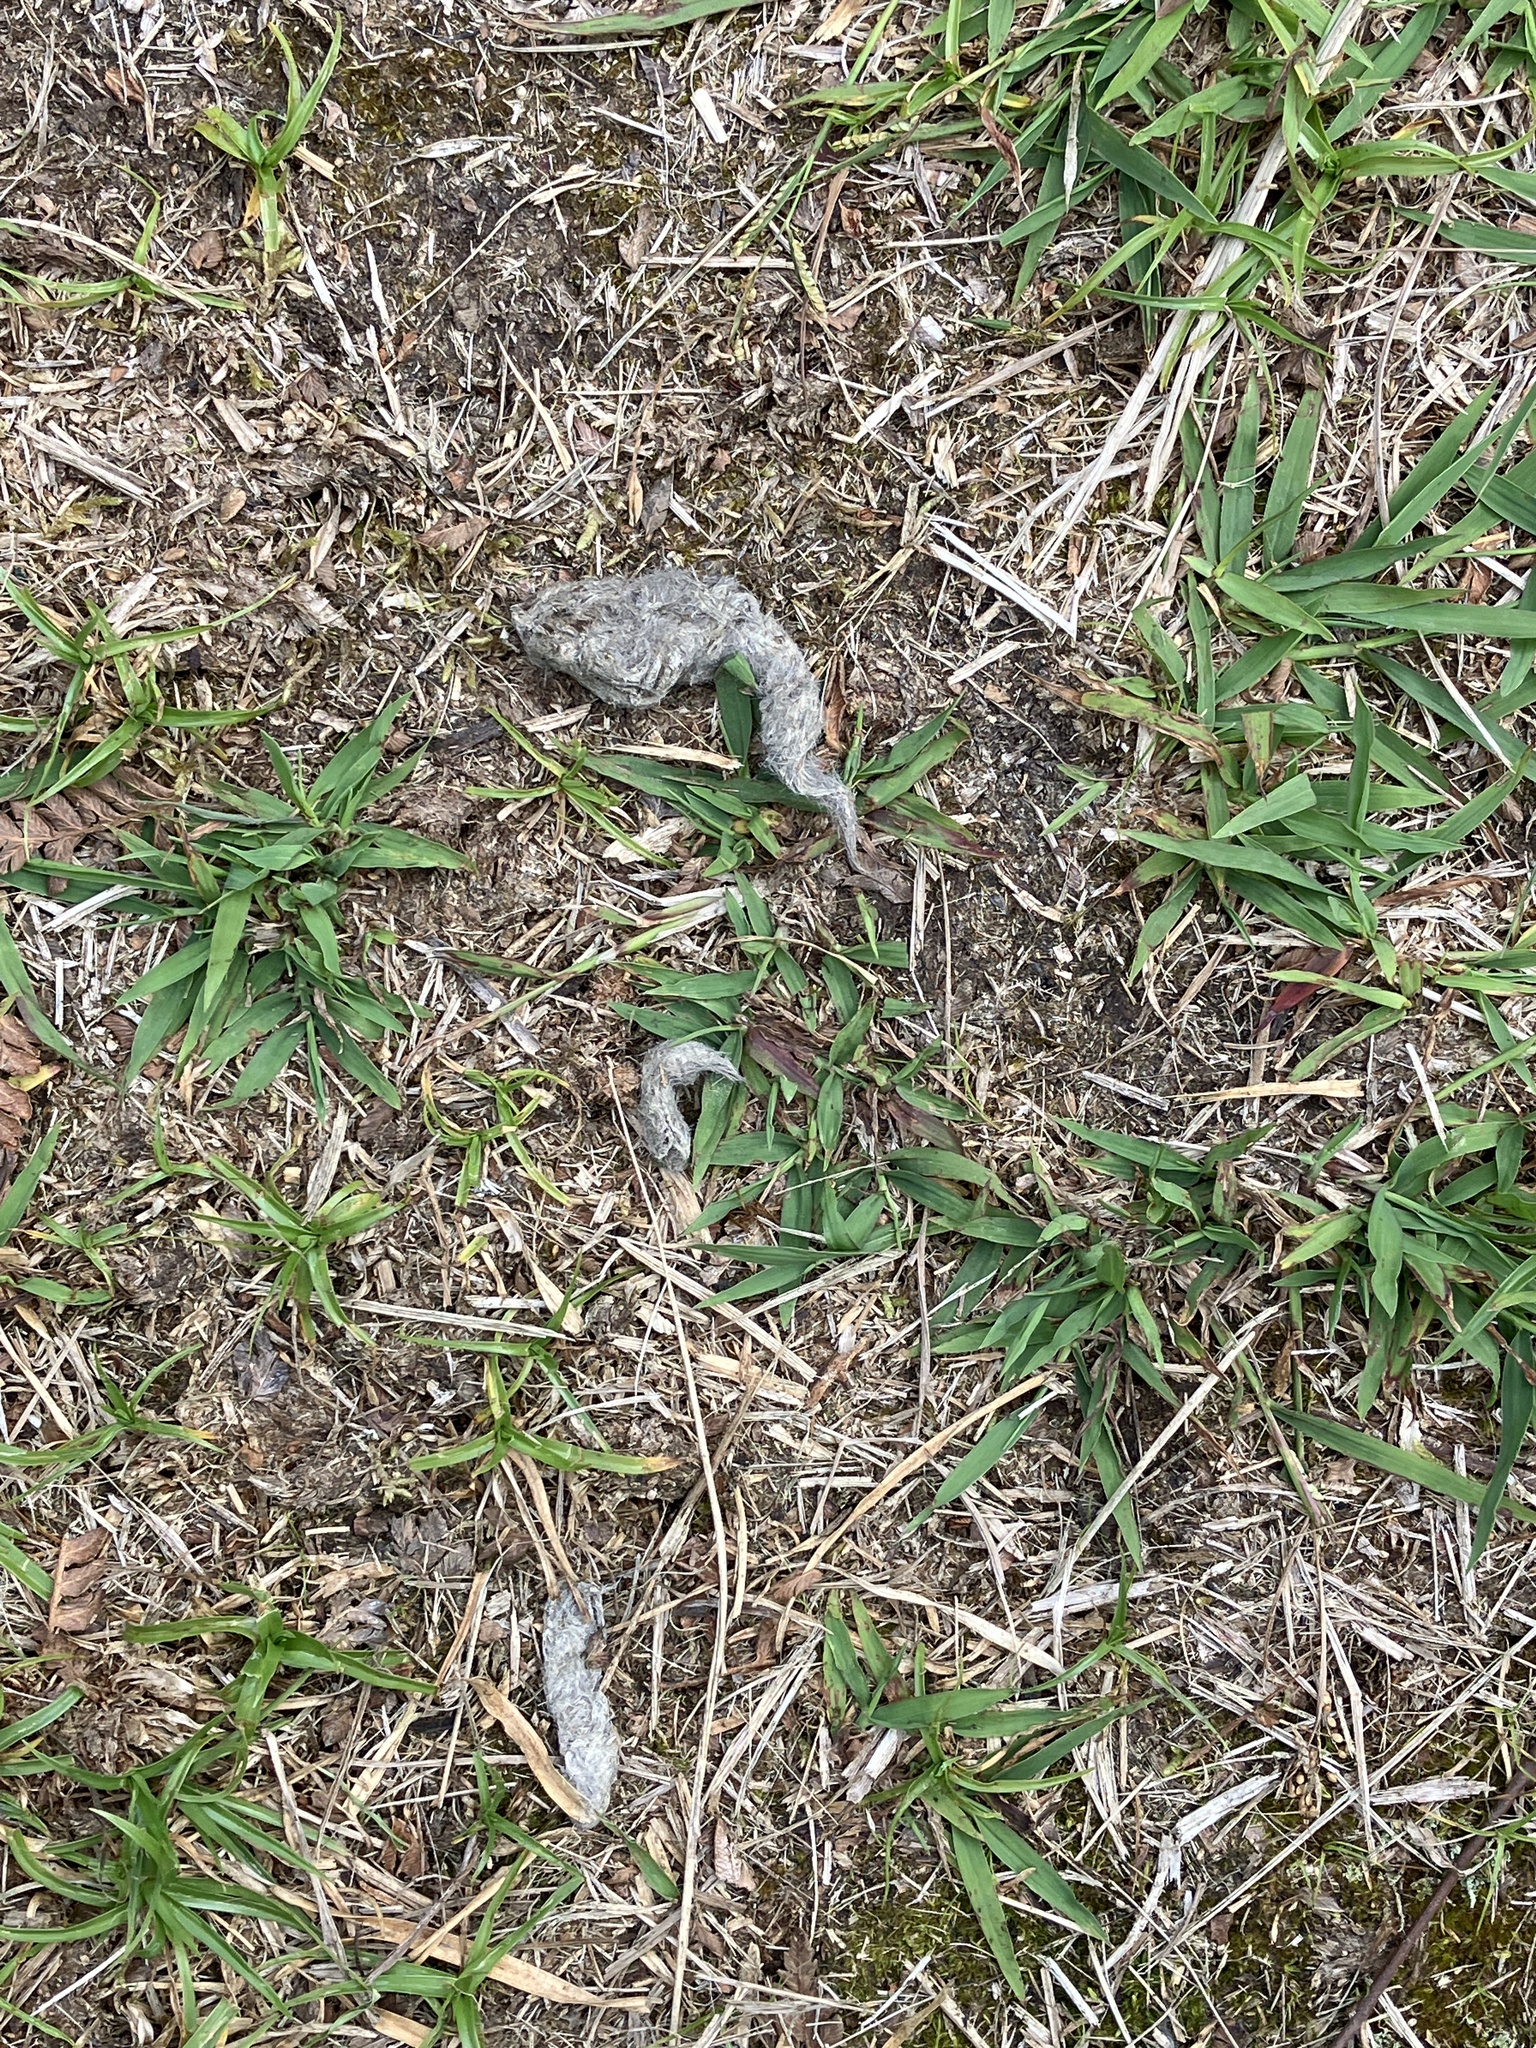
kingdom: Animalia
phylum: Chordata
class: Mammalia
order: Carnivora
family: Felidae
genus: Felis
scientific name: Felis catus
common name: Domestic cat
